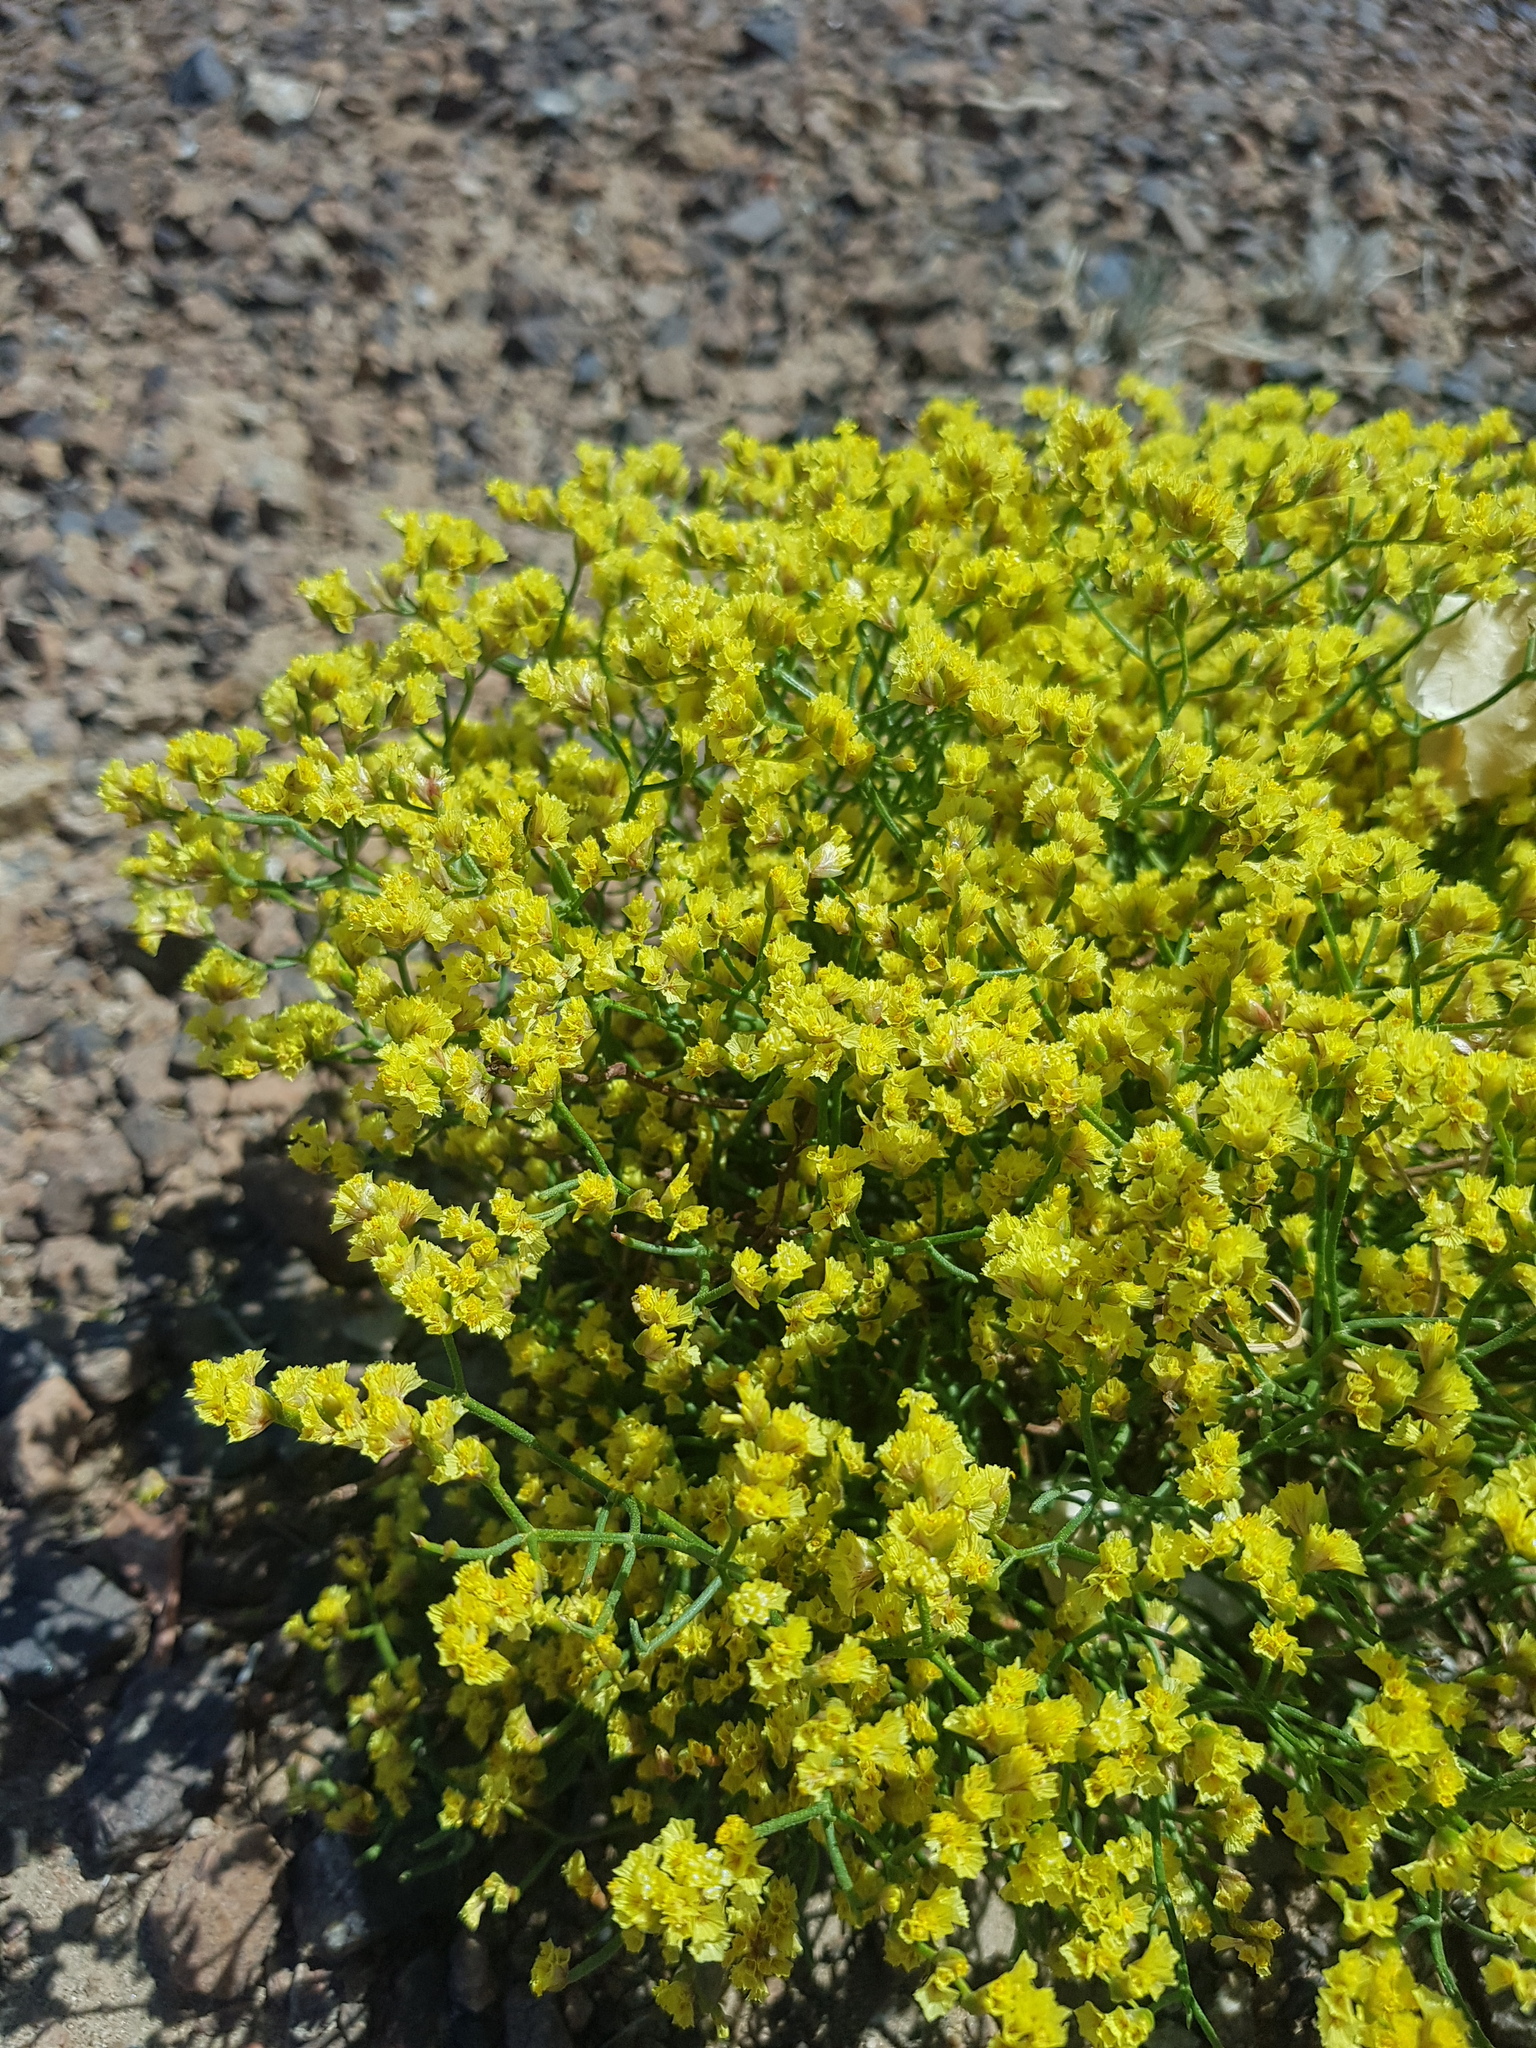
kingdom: Plantae
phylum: Tracheophyta
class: Magnoliopsida
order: Caryophyllales
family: Plumbaginaceae
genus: Limonium
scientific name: Limonium aureum
